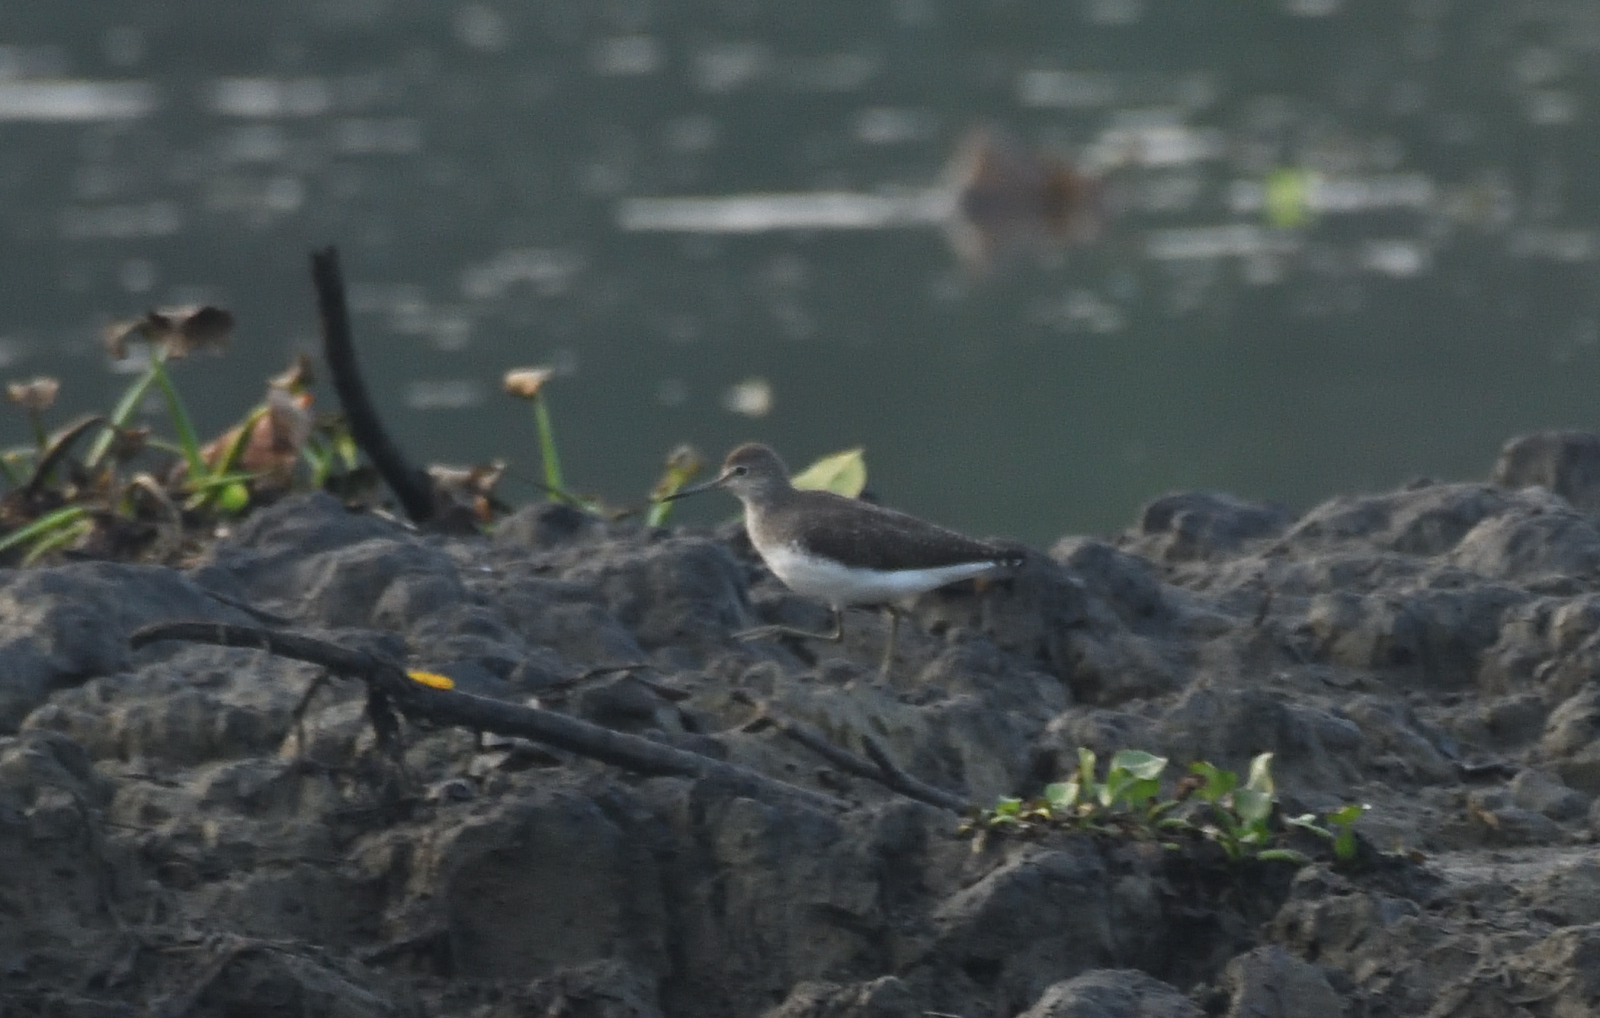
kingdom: Animalia
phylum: Chordata
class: Aves
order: Charadriiformes
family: Scolopacidae
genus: Actitis
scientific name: Actitis hypoleucos
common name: Common sandpiper
